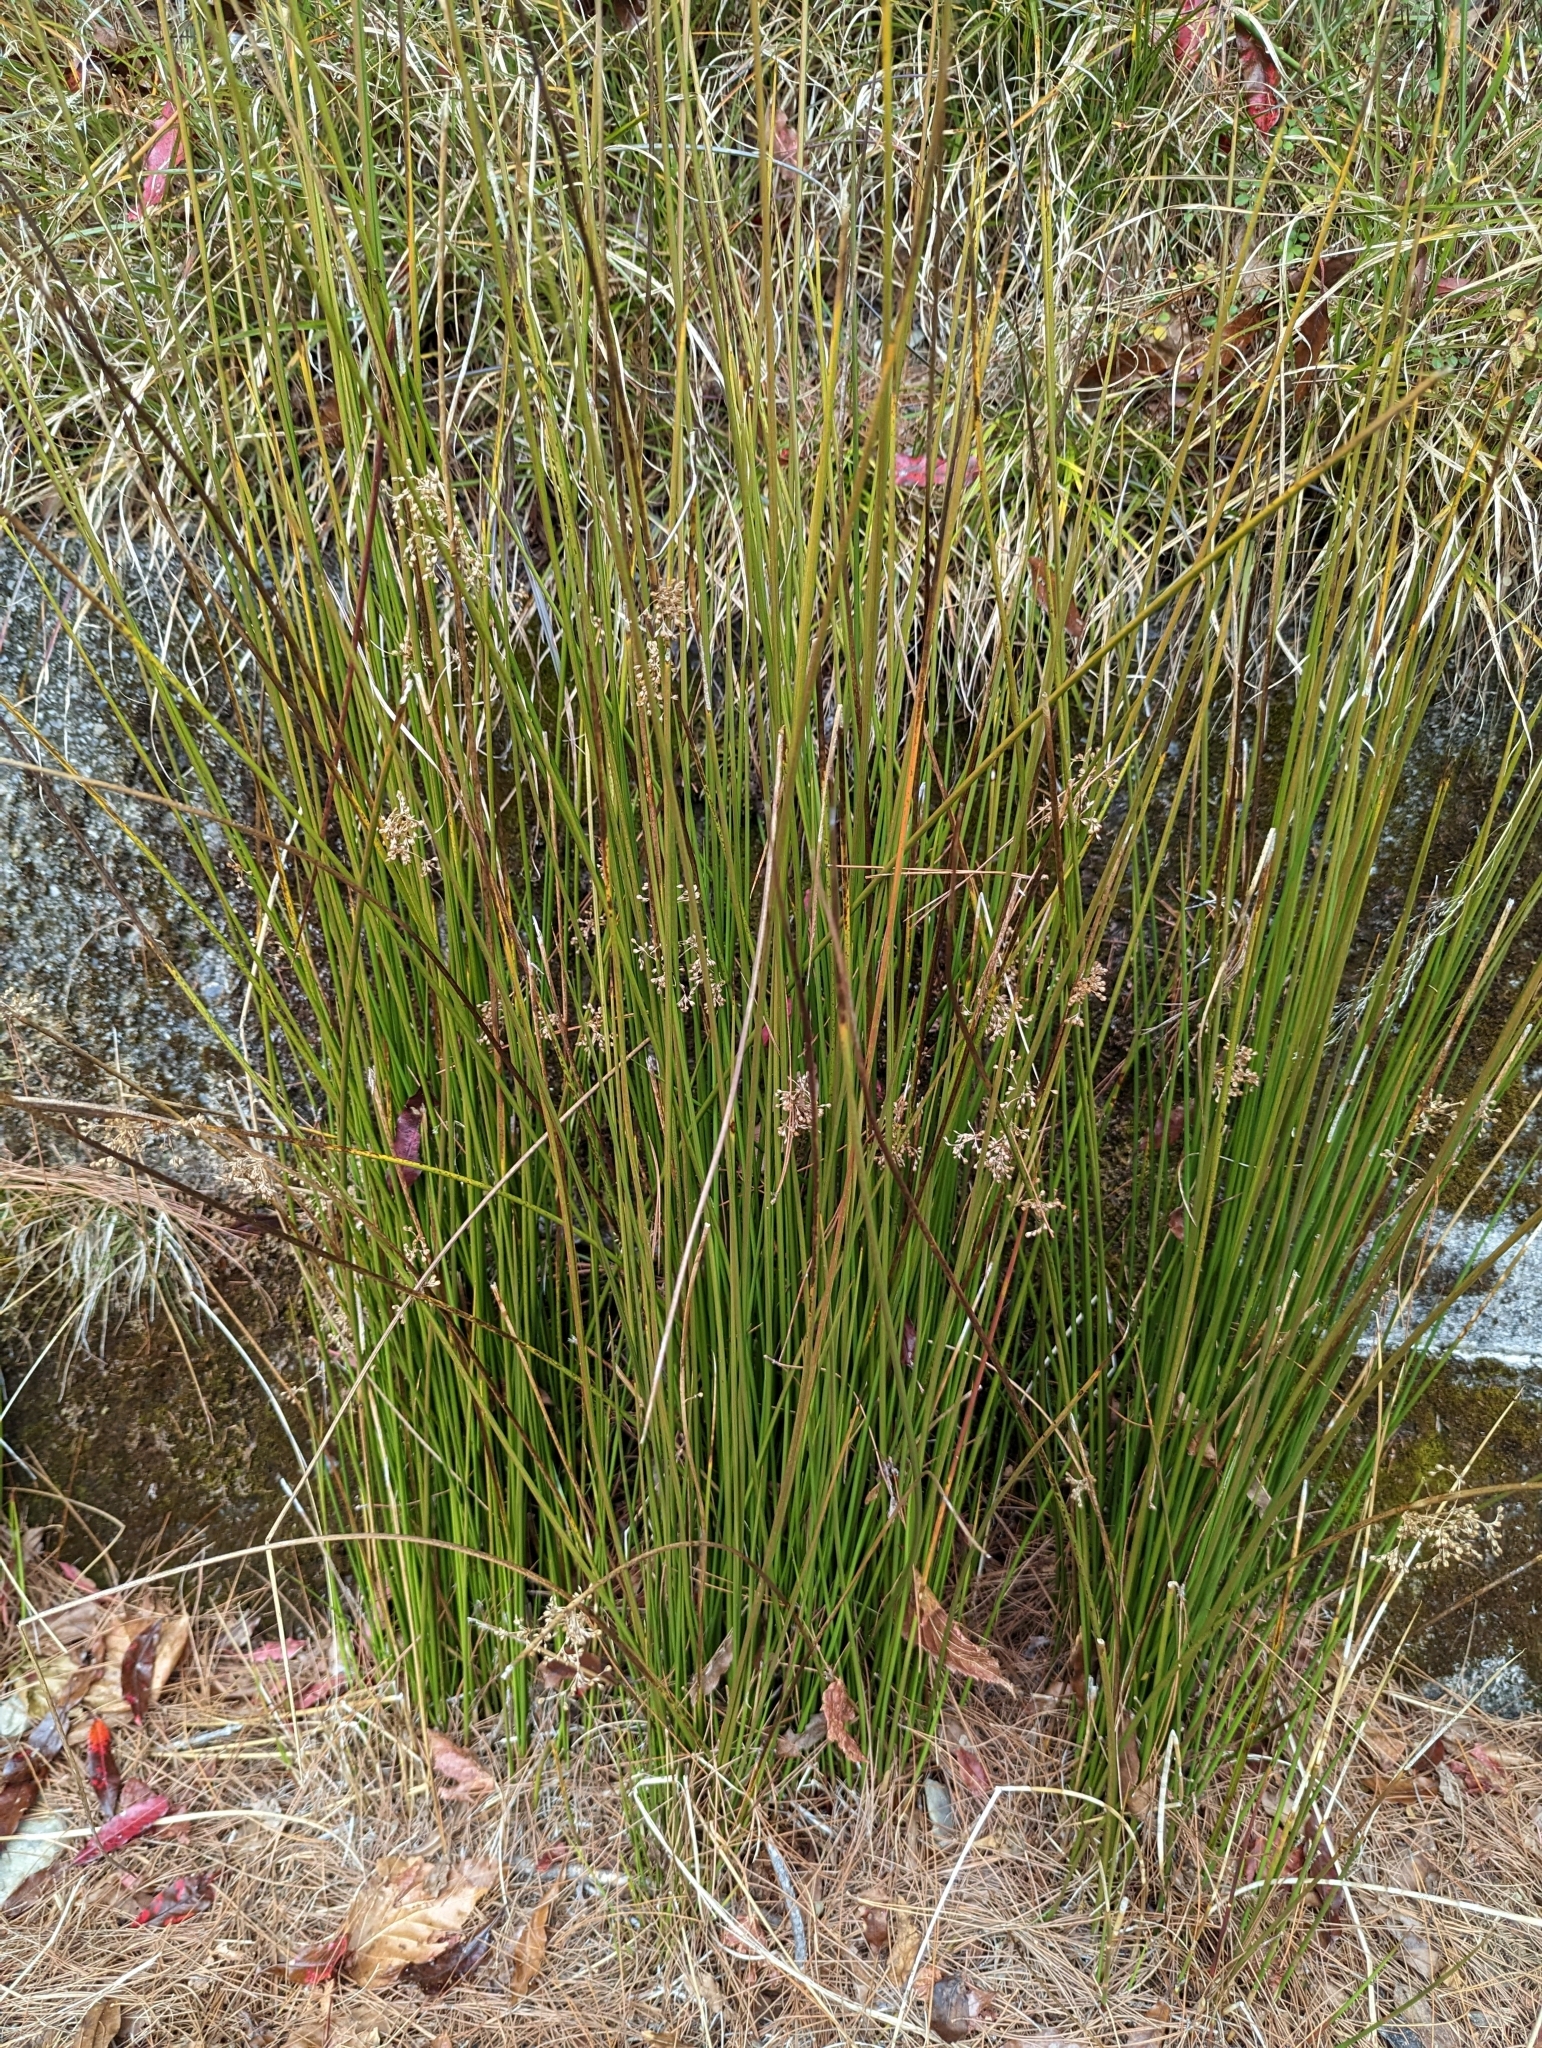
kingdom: Plantae
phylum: Tracheophyta
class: Liliopsida
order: Poales
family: Juncaceae
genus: Juncus
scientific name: Juncus effusus
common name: Soft rush
